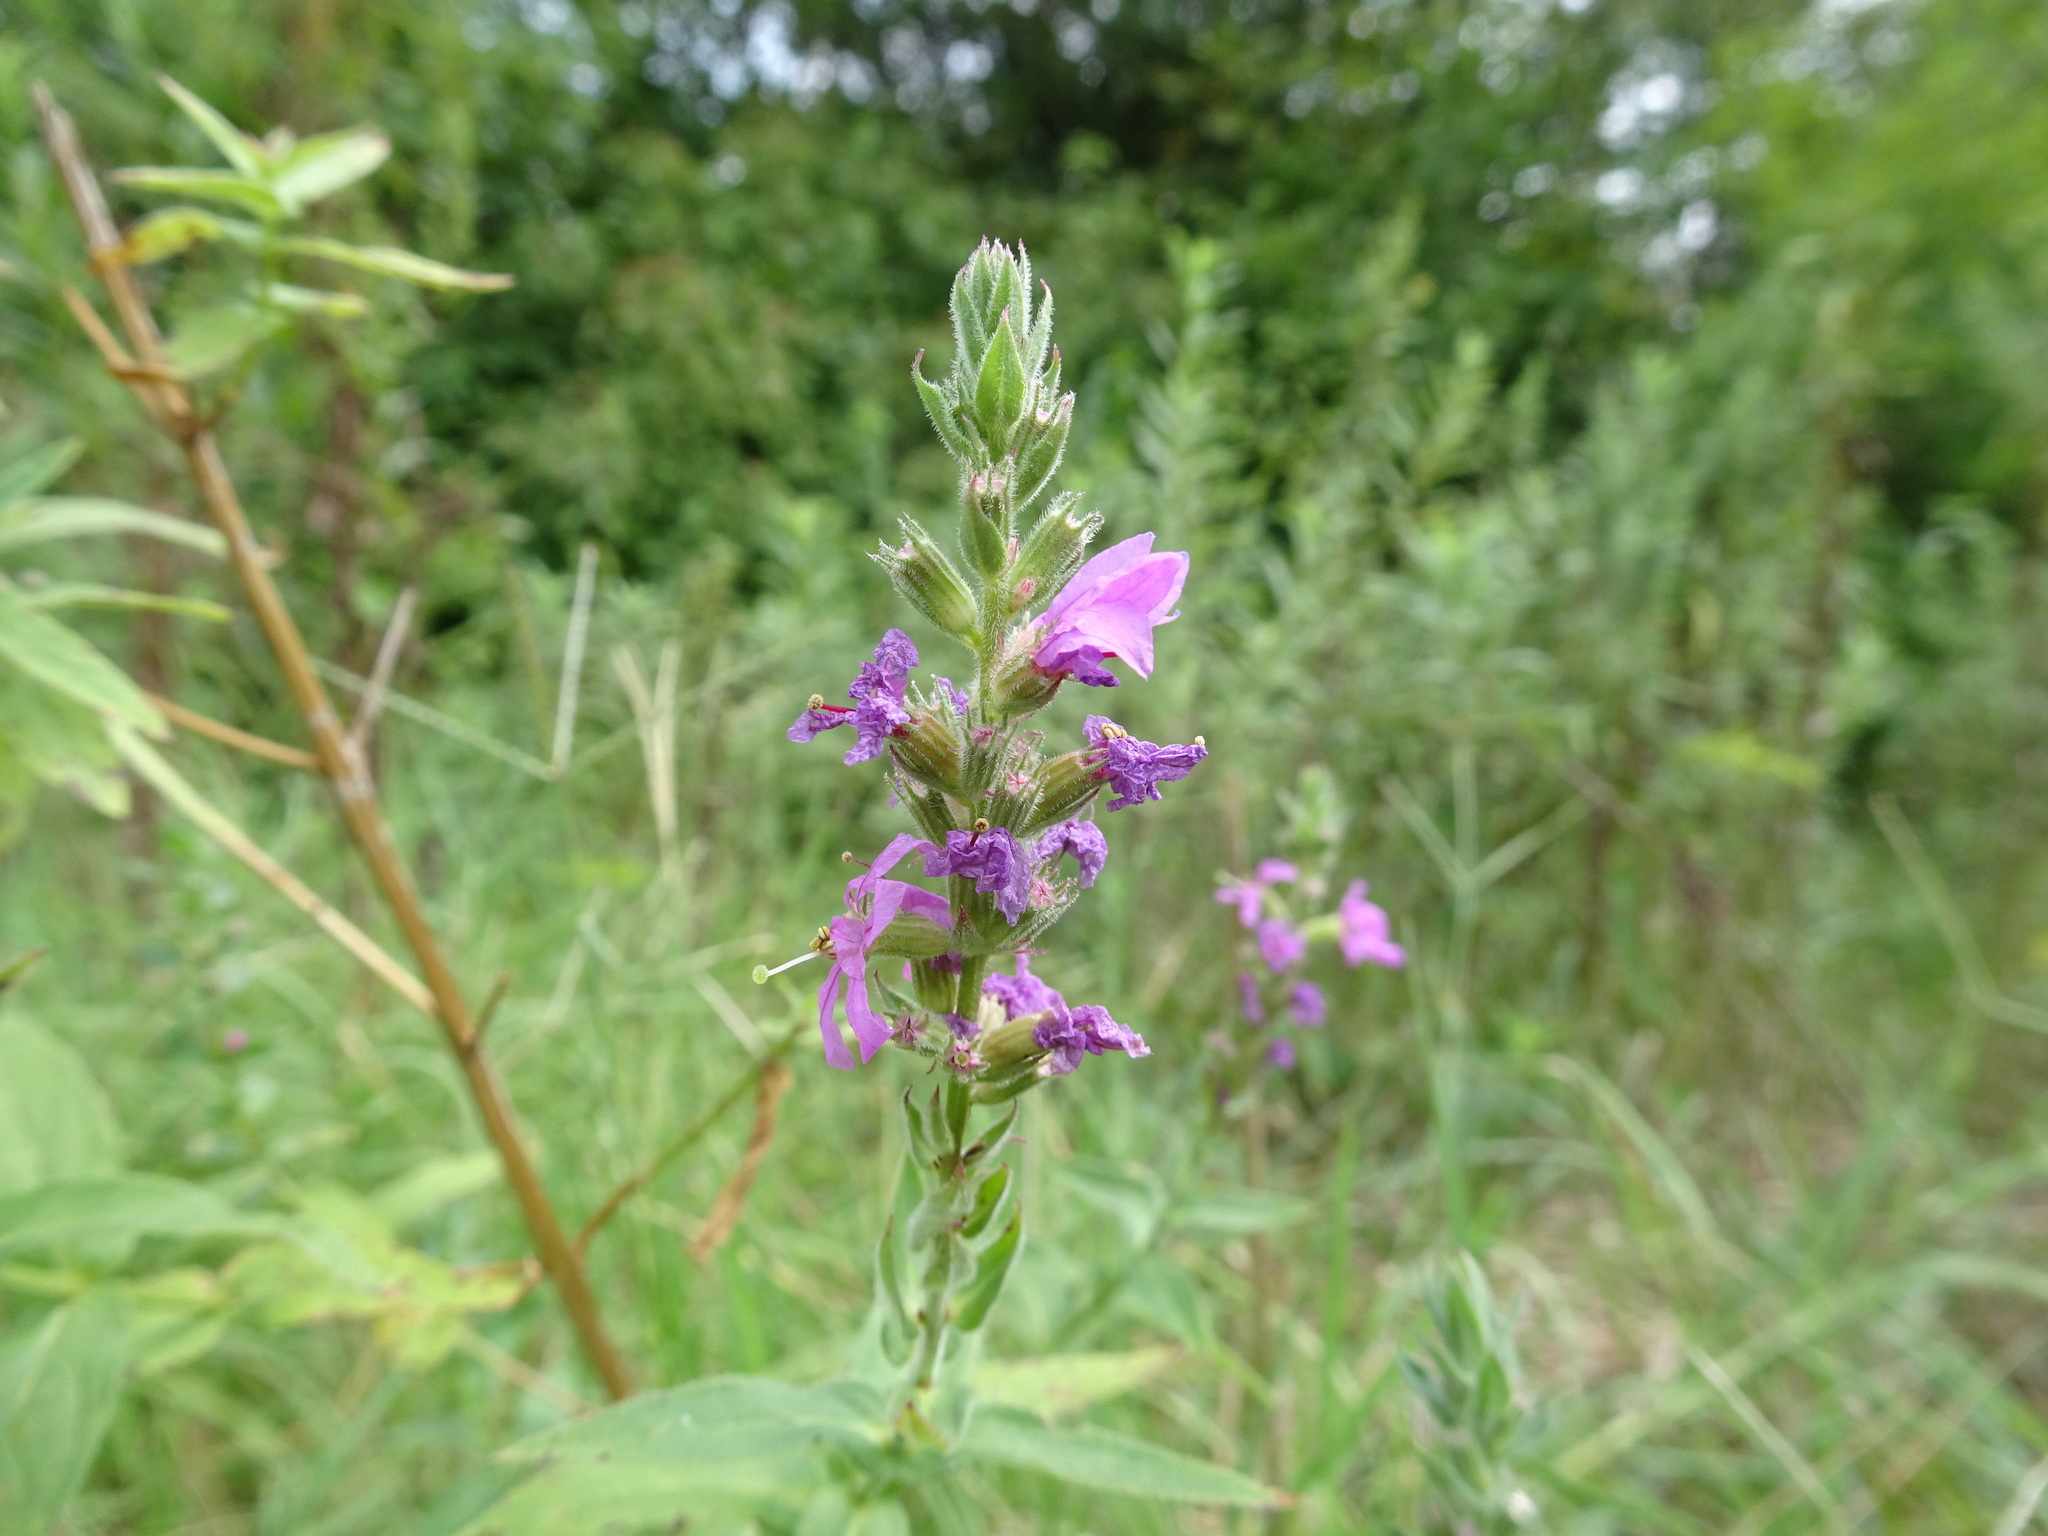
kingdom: Plantae
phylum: Tracheophyta
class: Magnoliopsida
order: Myrtales
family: Lythraceae
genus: Lythrum
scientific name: Lythrum salicaria
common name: Purple loosestrife
